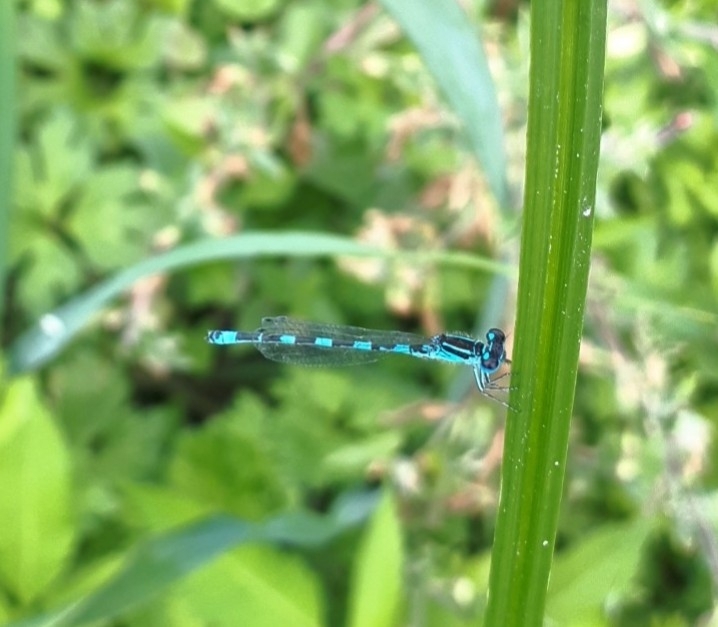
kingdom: Animalia
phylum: Arthropoda
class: Insecta
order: Odonata
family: Coenagrionidae
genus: Coenagrion
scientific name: Coenagrion mercuriale
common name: Southern damselfly
